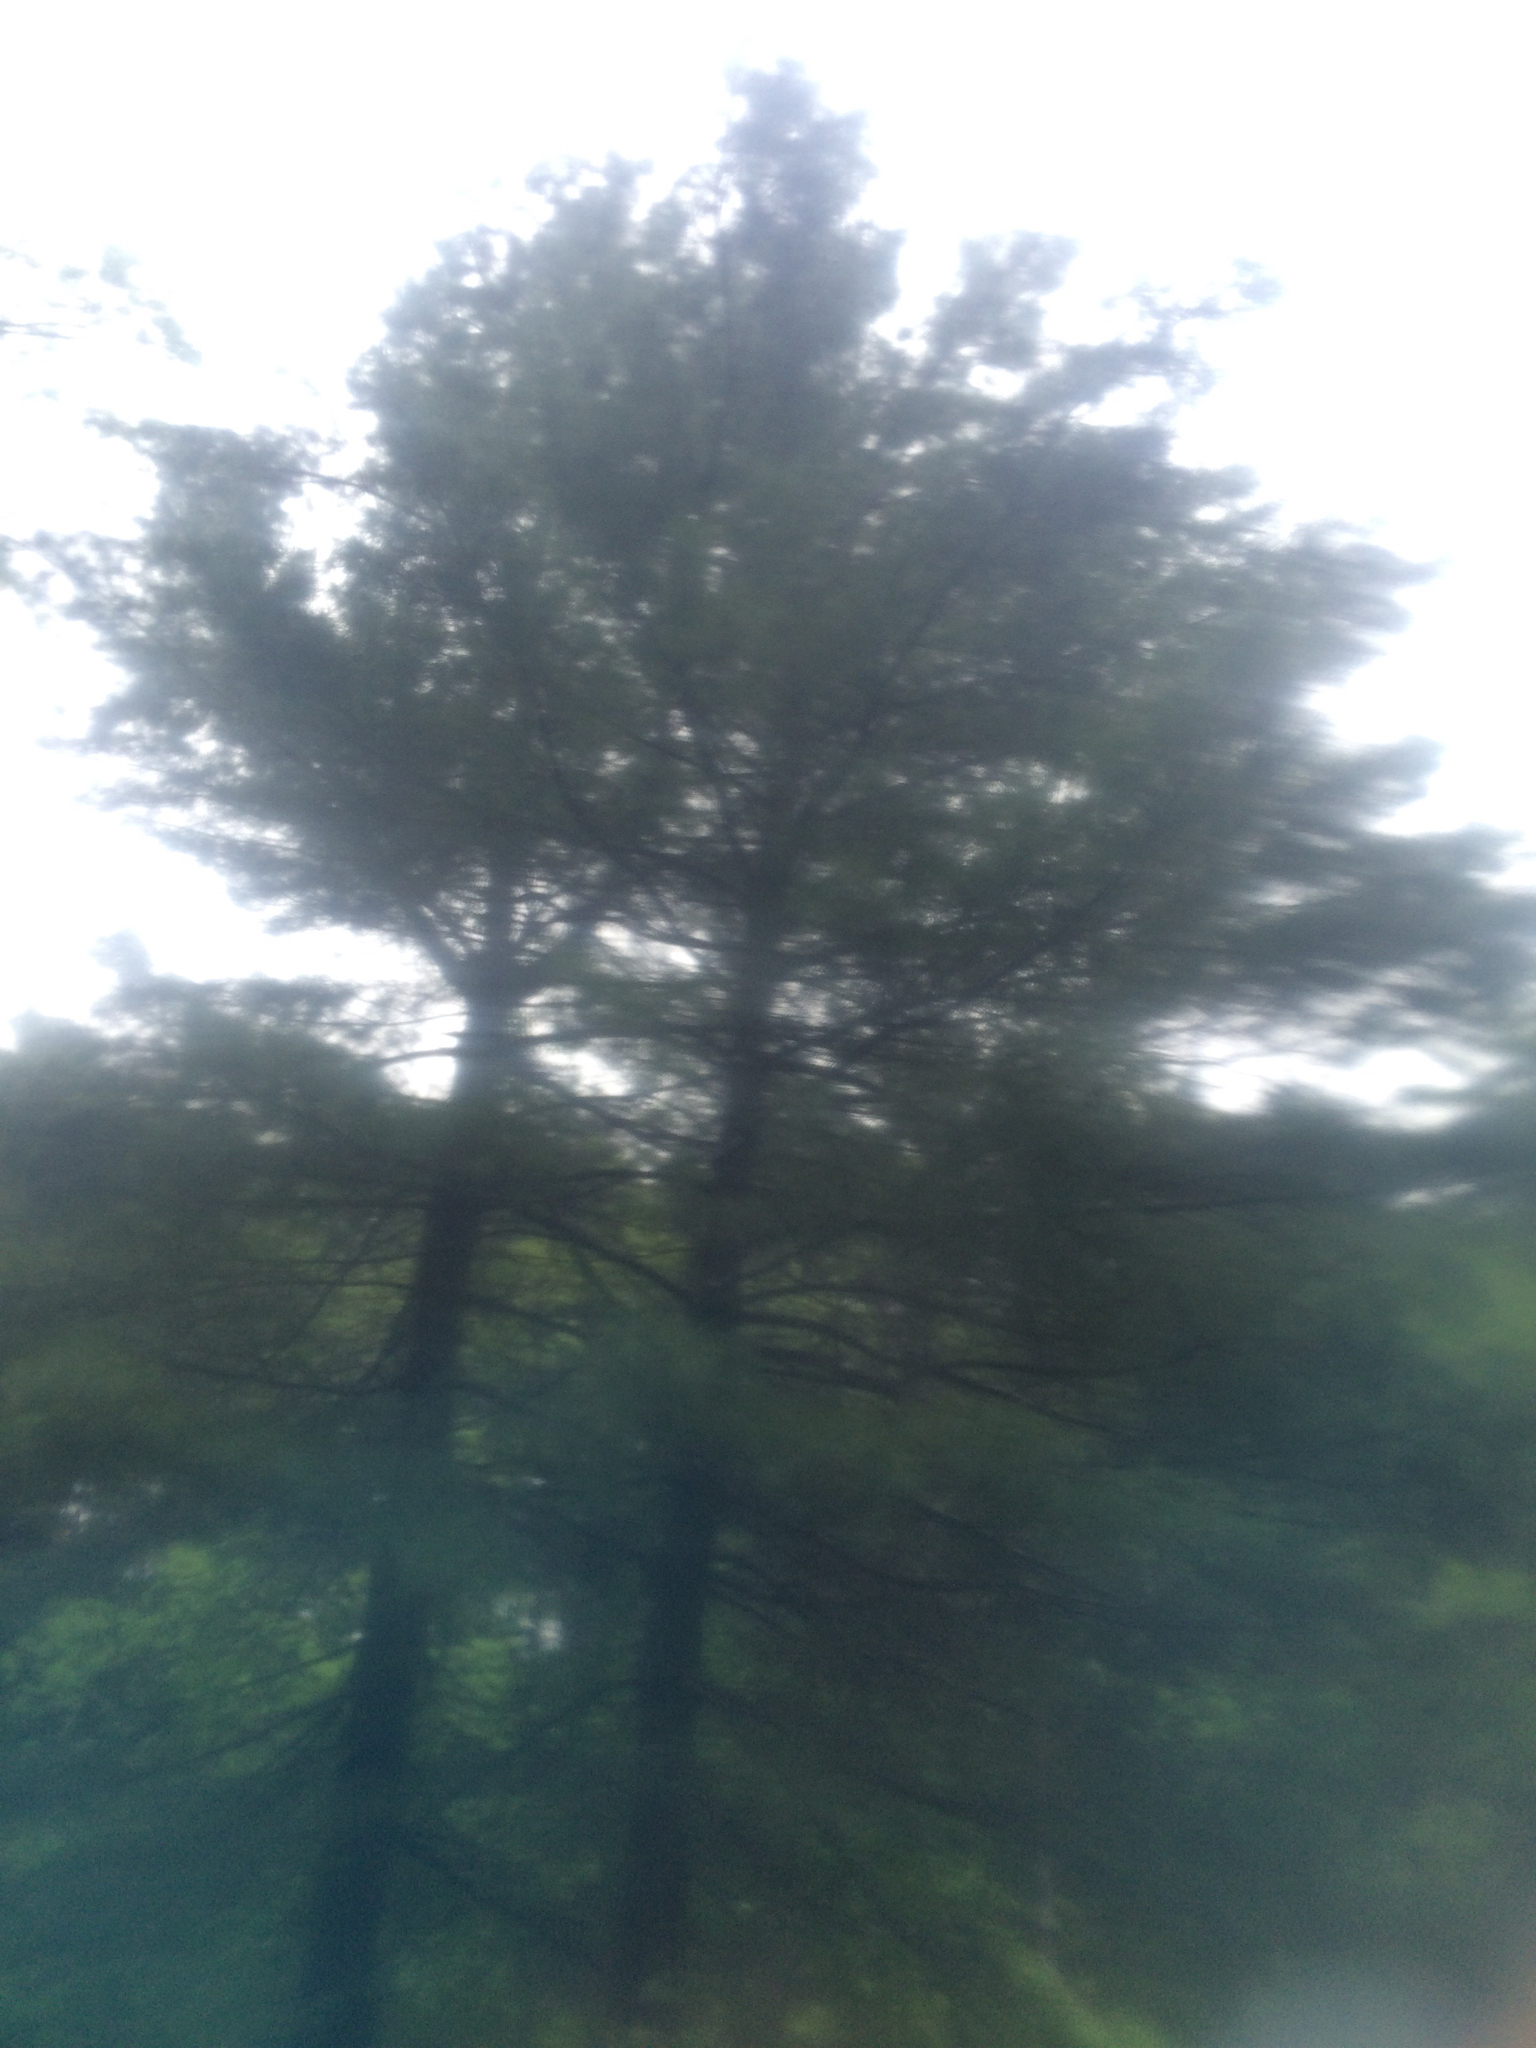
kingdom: Plantae
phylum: Tracheophyta
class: Pinopsida
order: Pinales
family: Pinaceae
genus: Pinus
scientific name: Pinus strobus
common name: Weymouth pine
